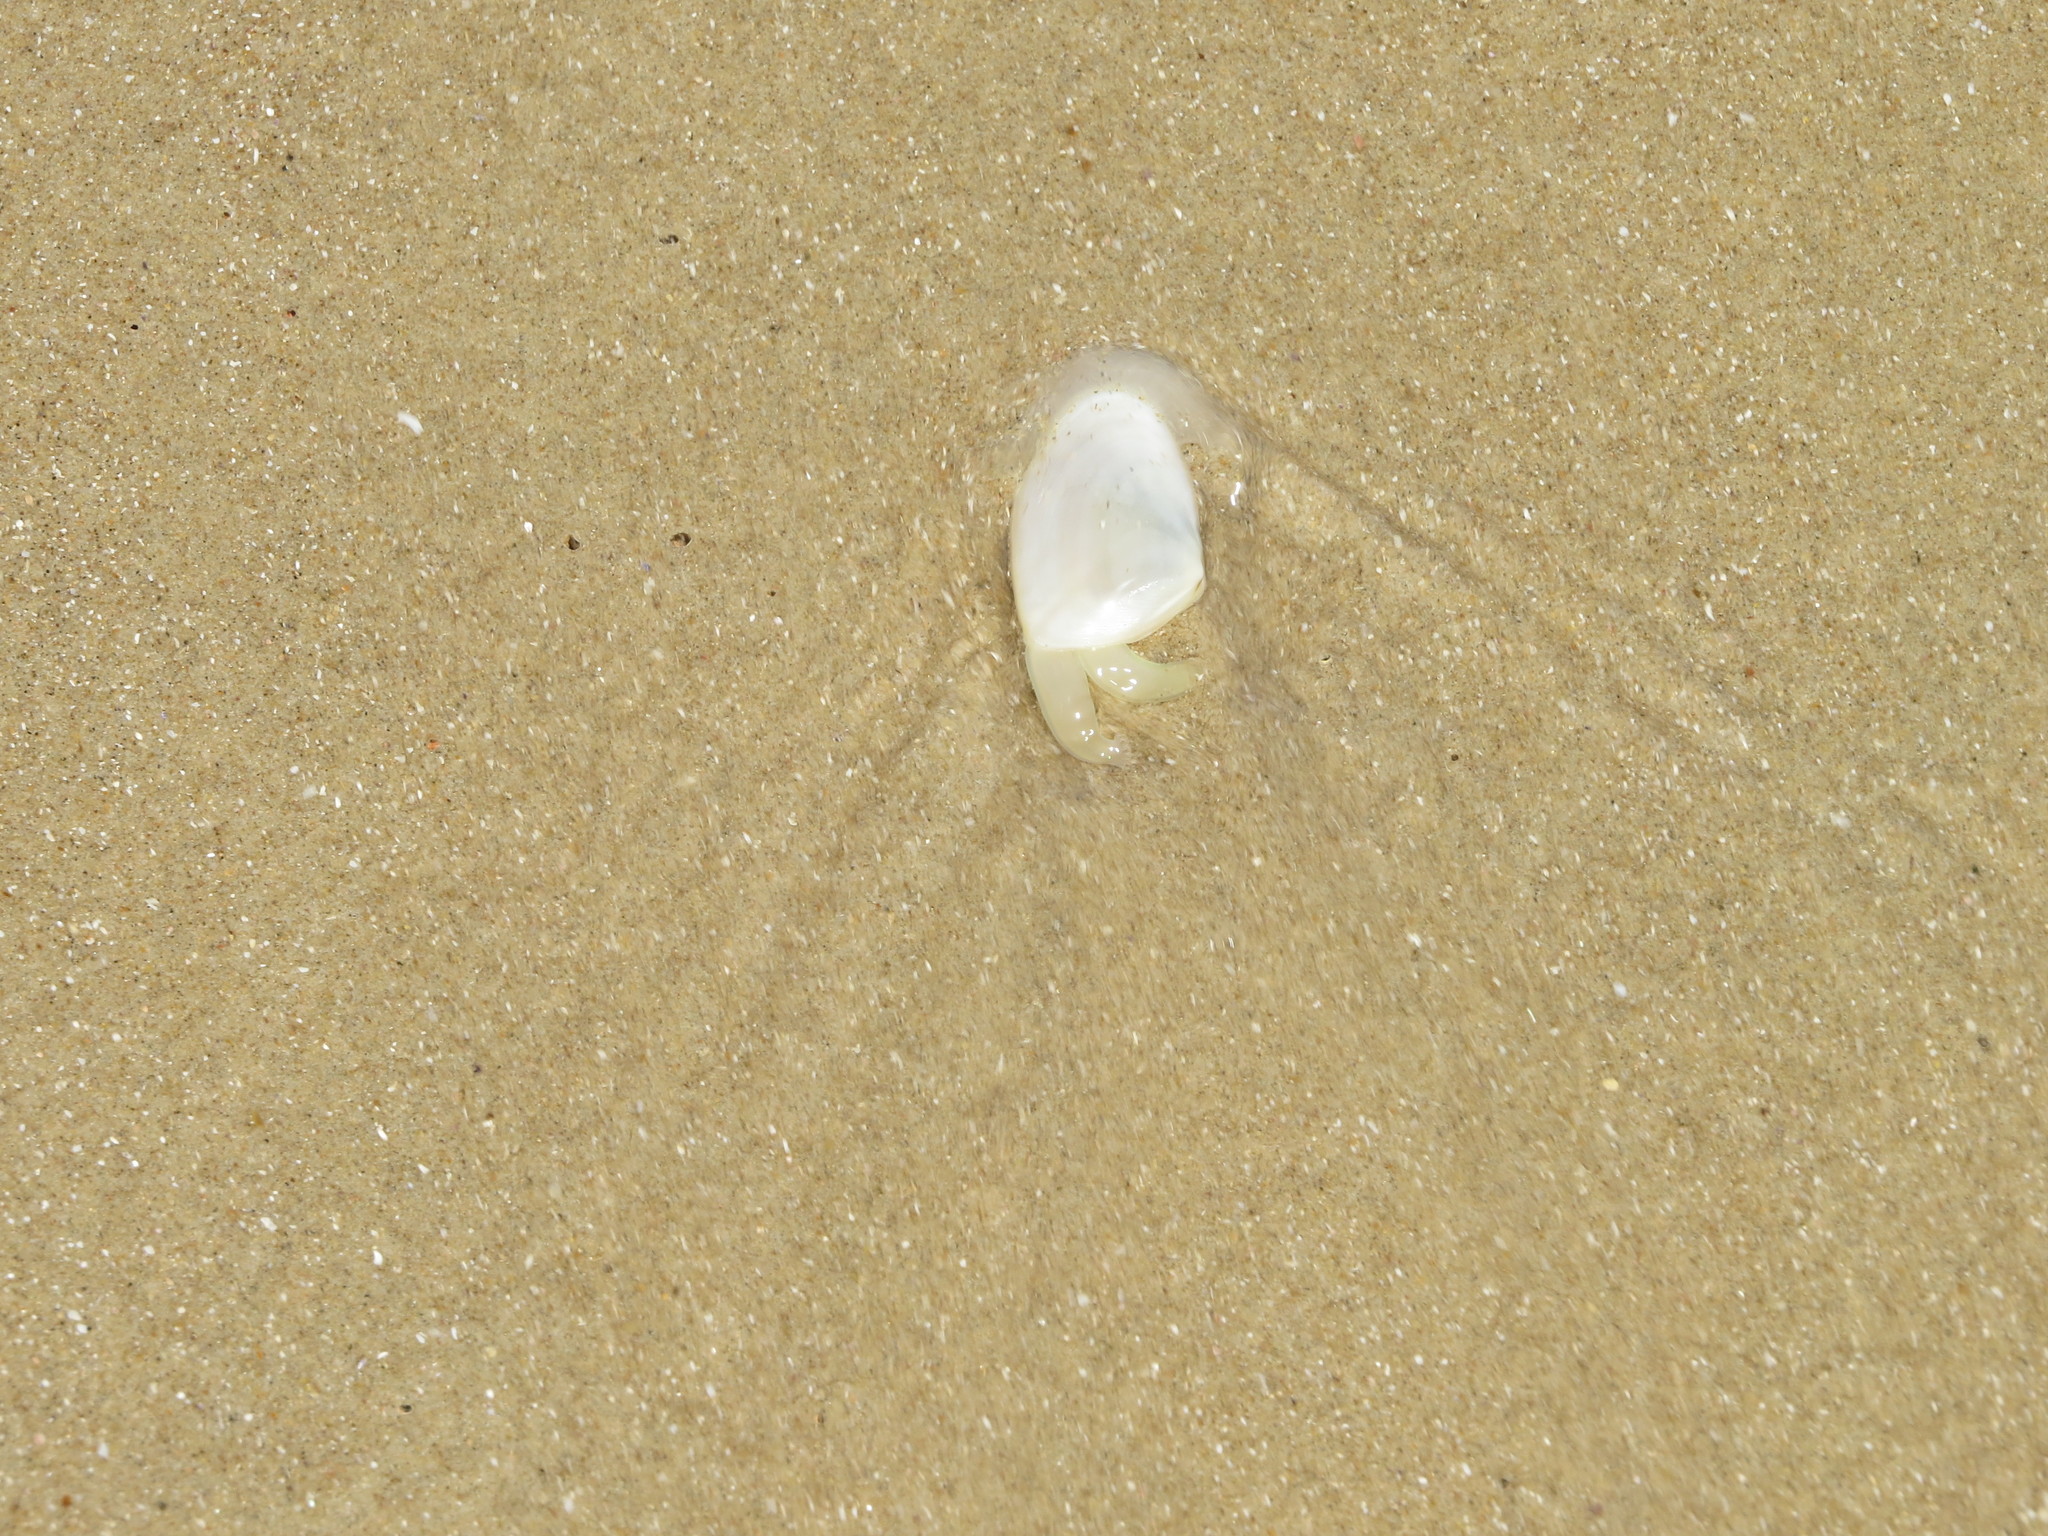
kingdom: Animalia
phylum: Mollusca
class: Bivalvia
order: Cardiida
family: Donacidae
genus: Donax
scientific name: Donax hanleyanus
